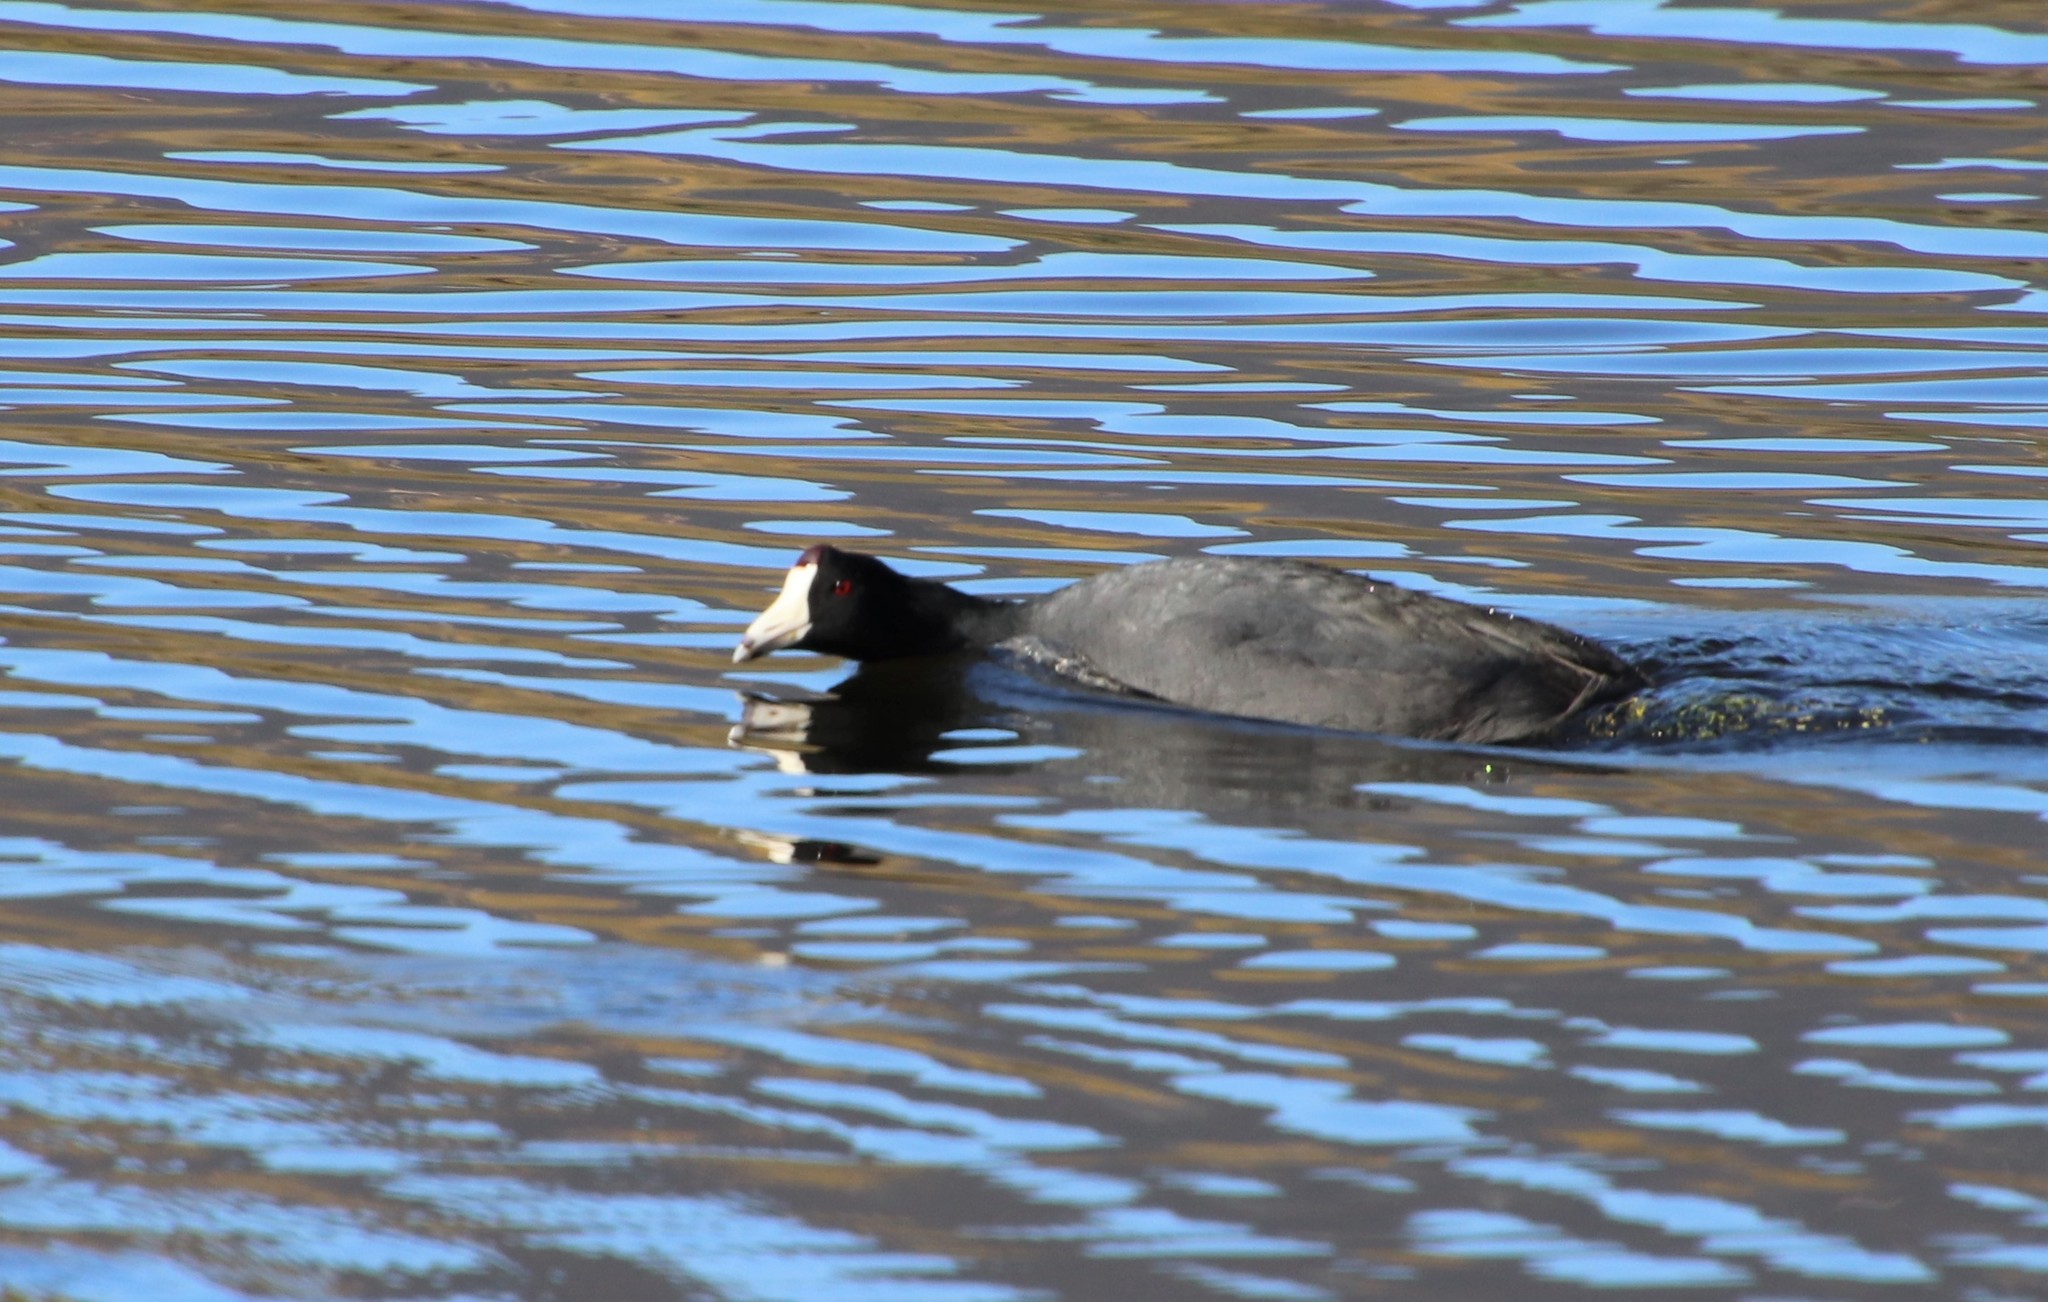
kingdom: Animalia
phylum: Chordata
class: Aves
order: Gruiformes
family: Rallidae
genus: Fulica
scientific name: Fulica americana
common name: American coot
